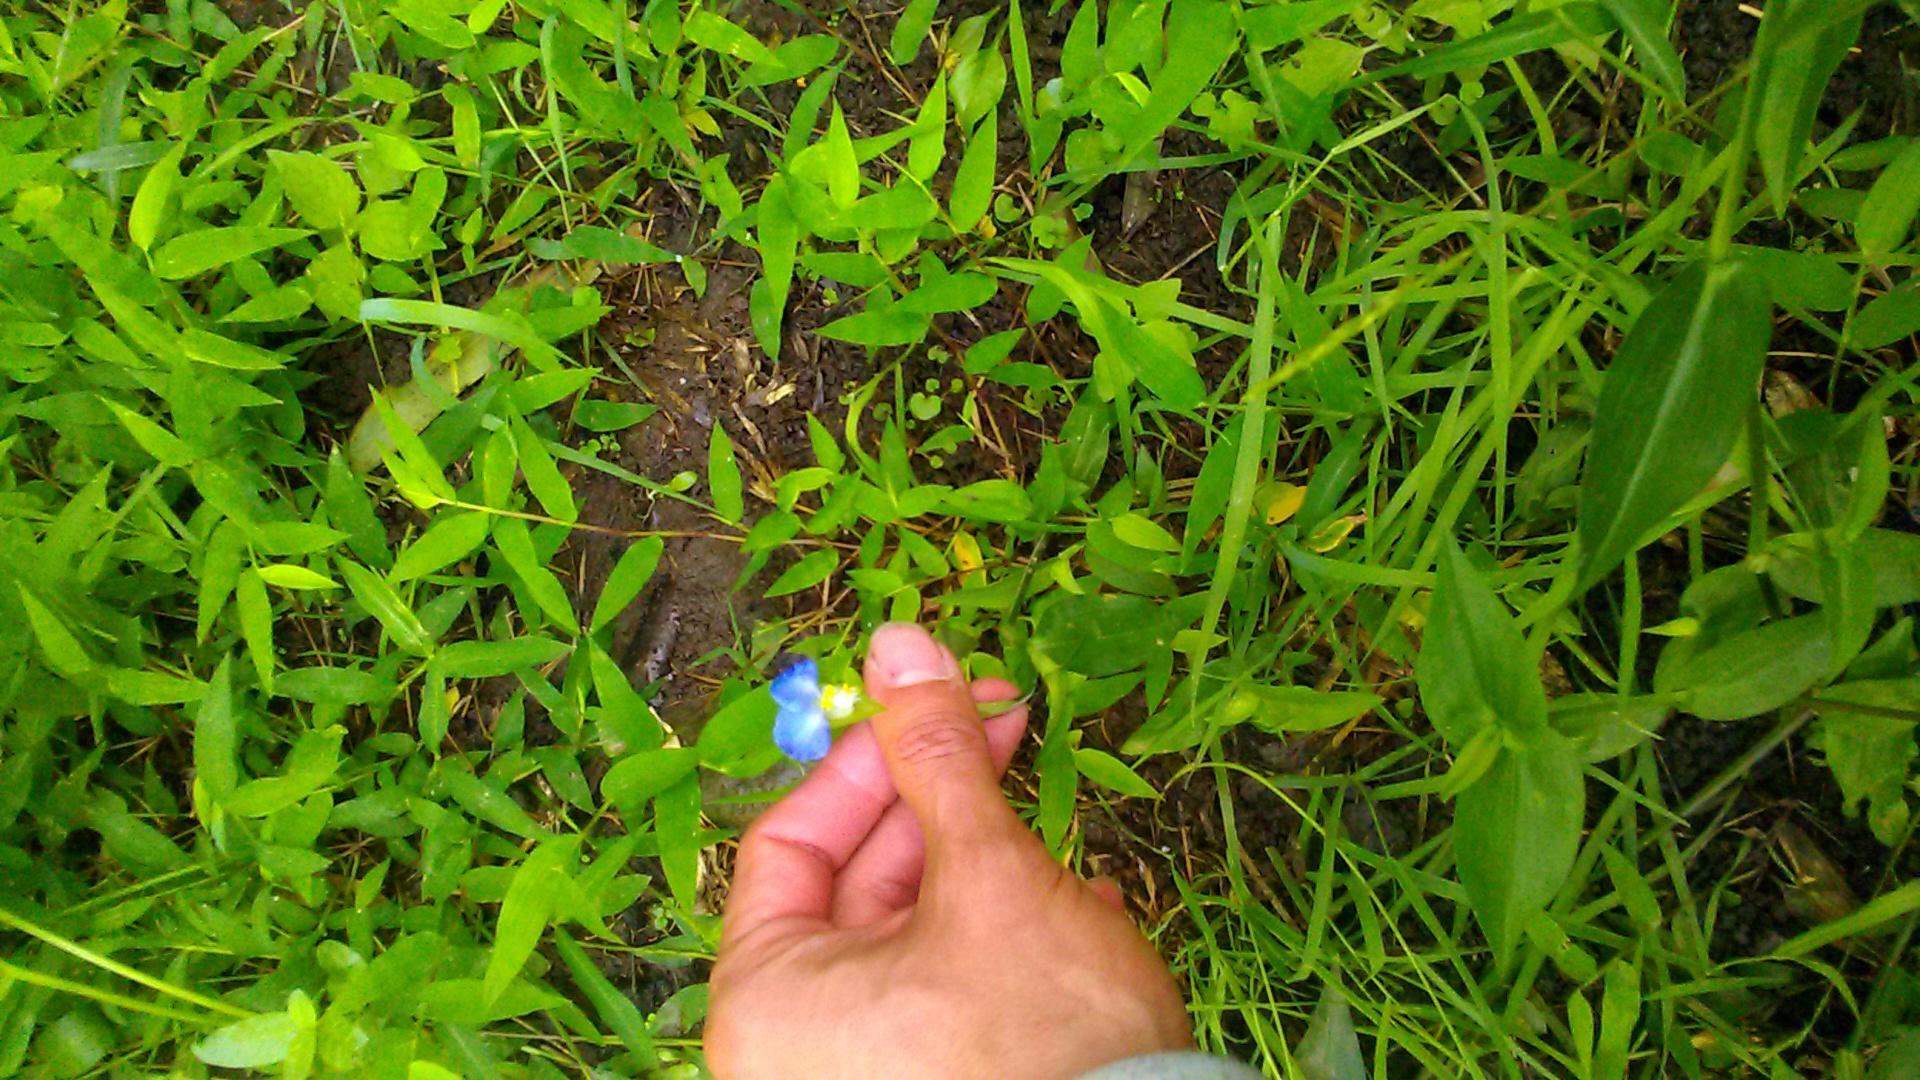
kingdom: Plantae
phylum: Tracheophyta
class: Liliopsida
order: Commelinales
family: Commelinaceae
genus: Commelina
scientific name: Commelina communis
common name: Asiatic dayflower
